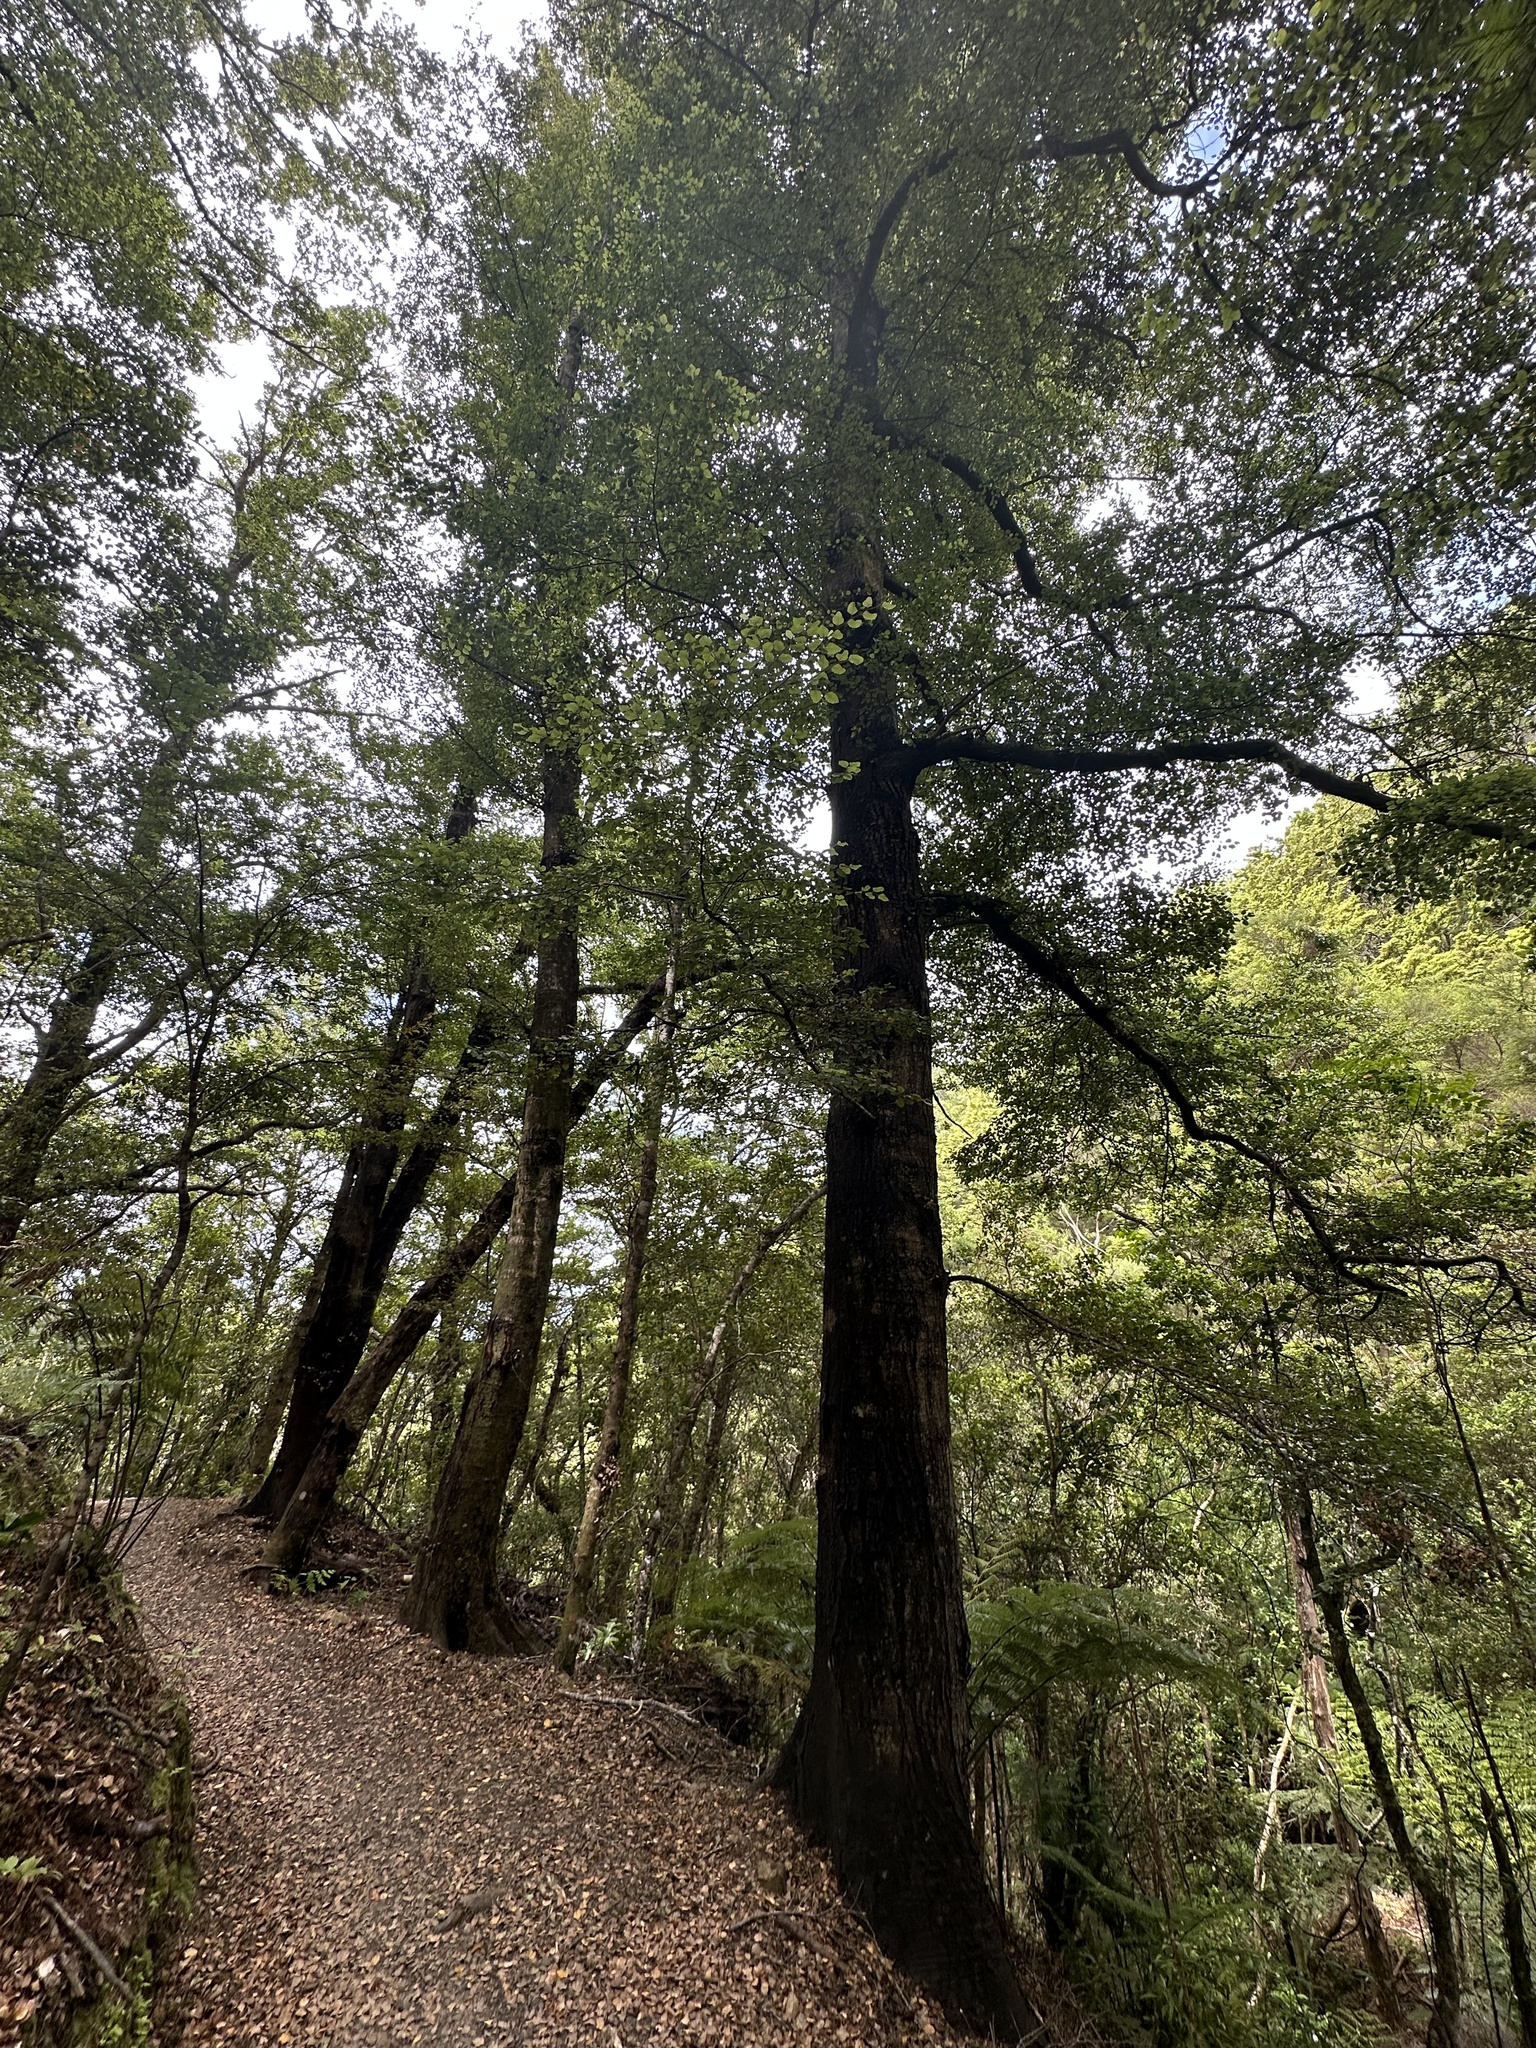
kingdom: Plantae
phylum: Tracheophyta
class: Magnoliopsida
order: Fagales
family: Nothofagaceae
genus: Nothofagus
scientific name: Nothofagus truncata
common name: Hard beech
